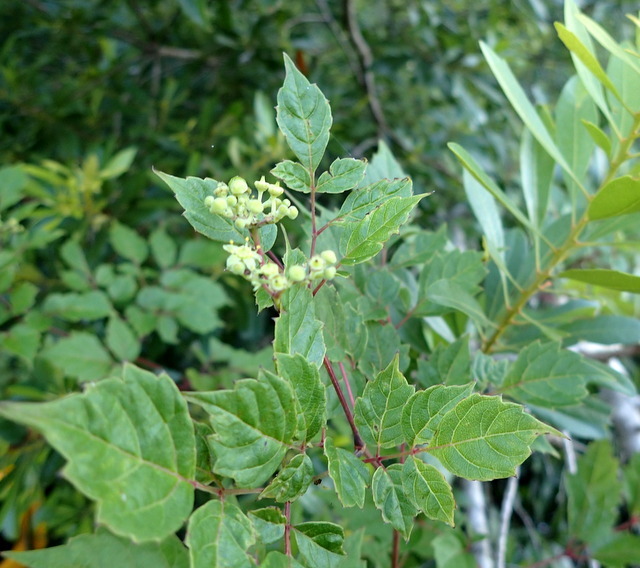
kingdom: Plantae
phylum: Tracheophyta
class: Magnoliopsida
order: Vitales
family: Vitaceae
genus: Nekemias
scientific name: Nekemias arborea
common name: Peppervine
